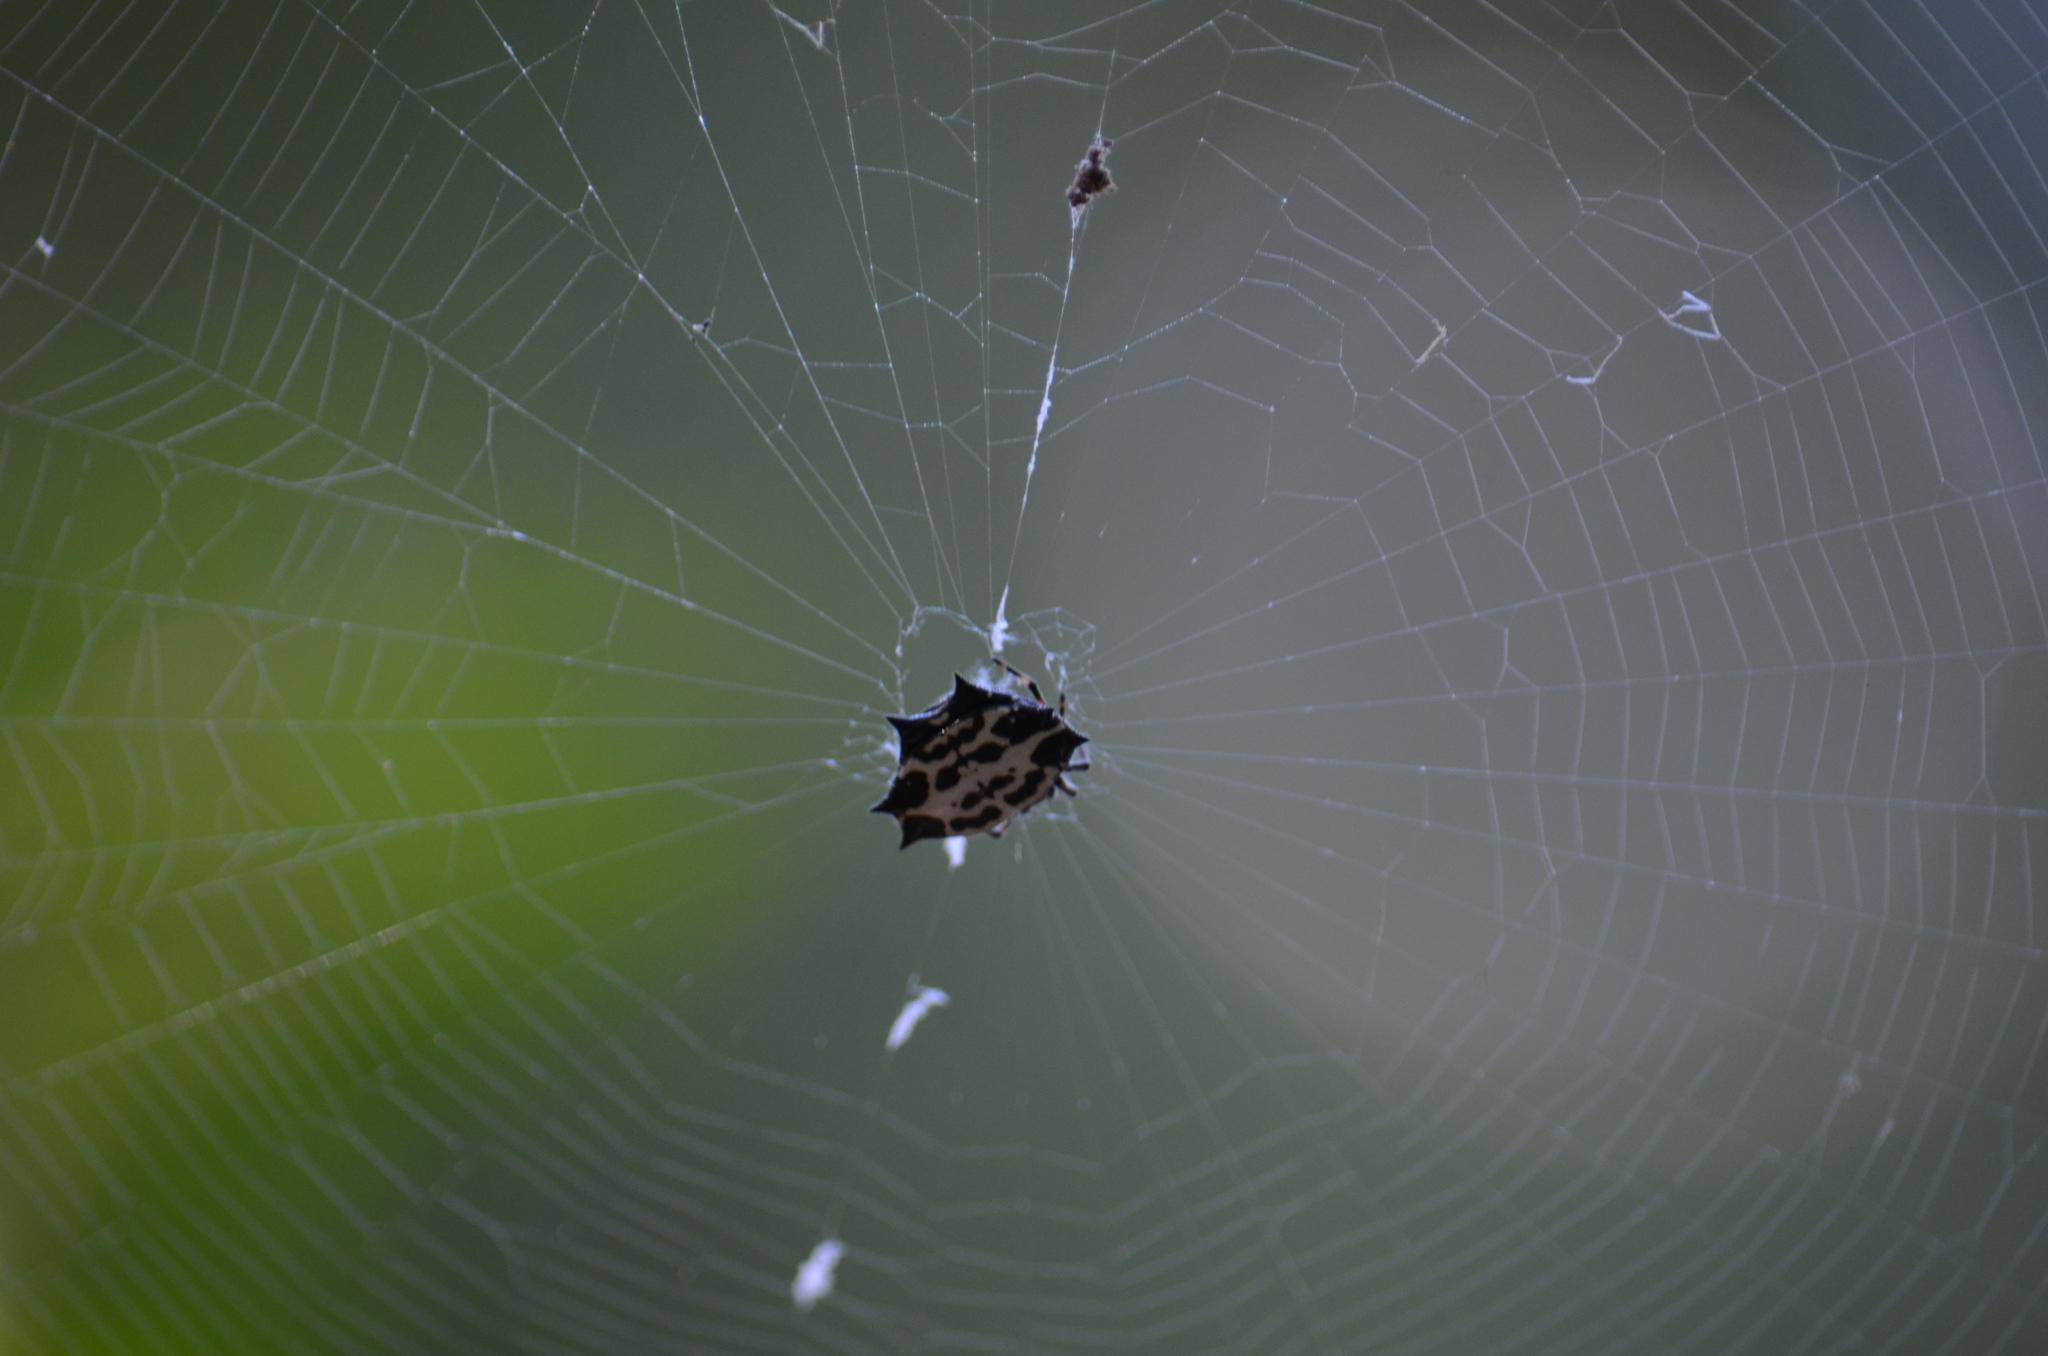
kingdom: Animalia
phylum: Arthropoda
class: Arachnida
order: Araneae
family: Araneidae
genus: Gasteracantha
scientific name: Gasteracantha cancriformis
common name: Orb weavers
